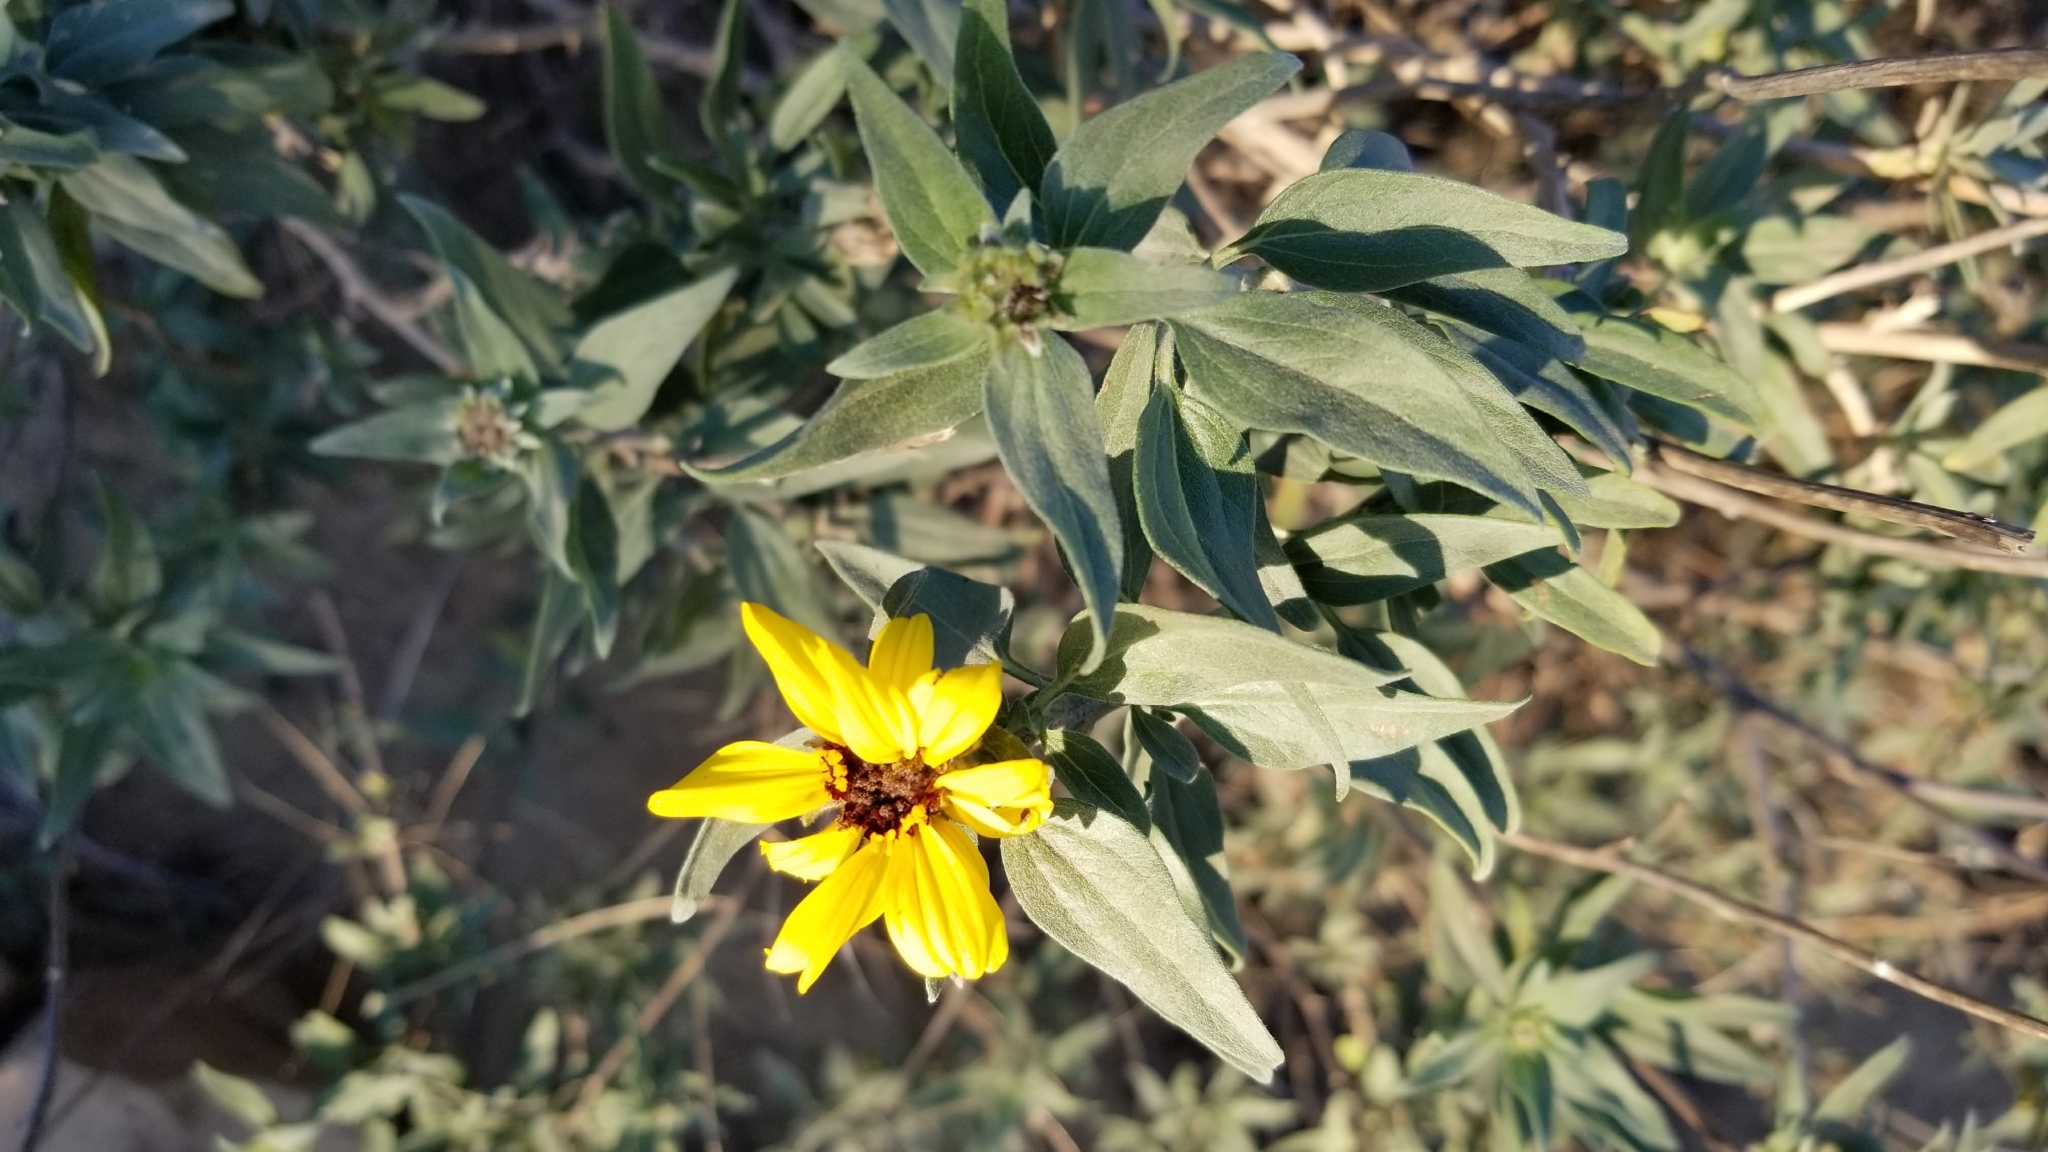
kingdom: Plantae
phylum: Tracheophyta
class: Magnoliopsida
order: Asterales
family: Asteraceae
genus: Encelia
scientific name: Encelia californica
